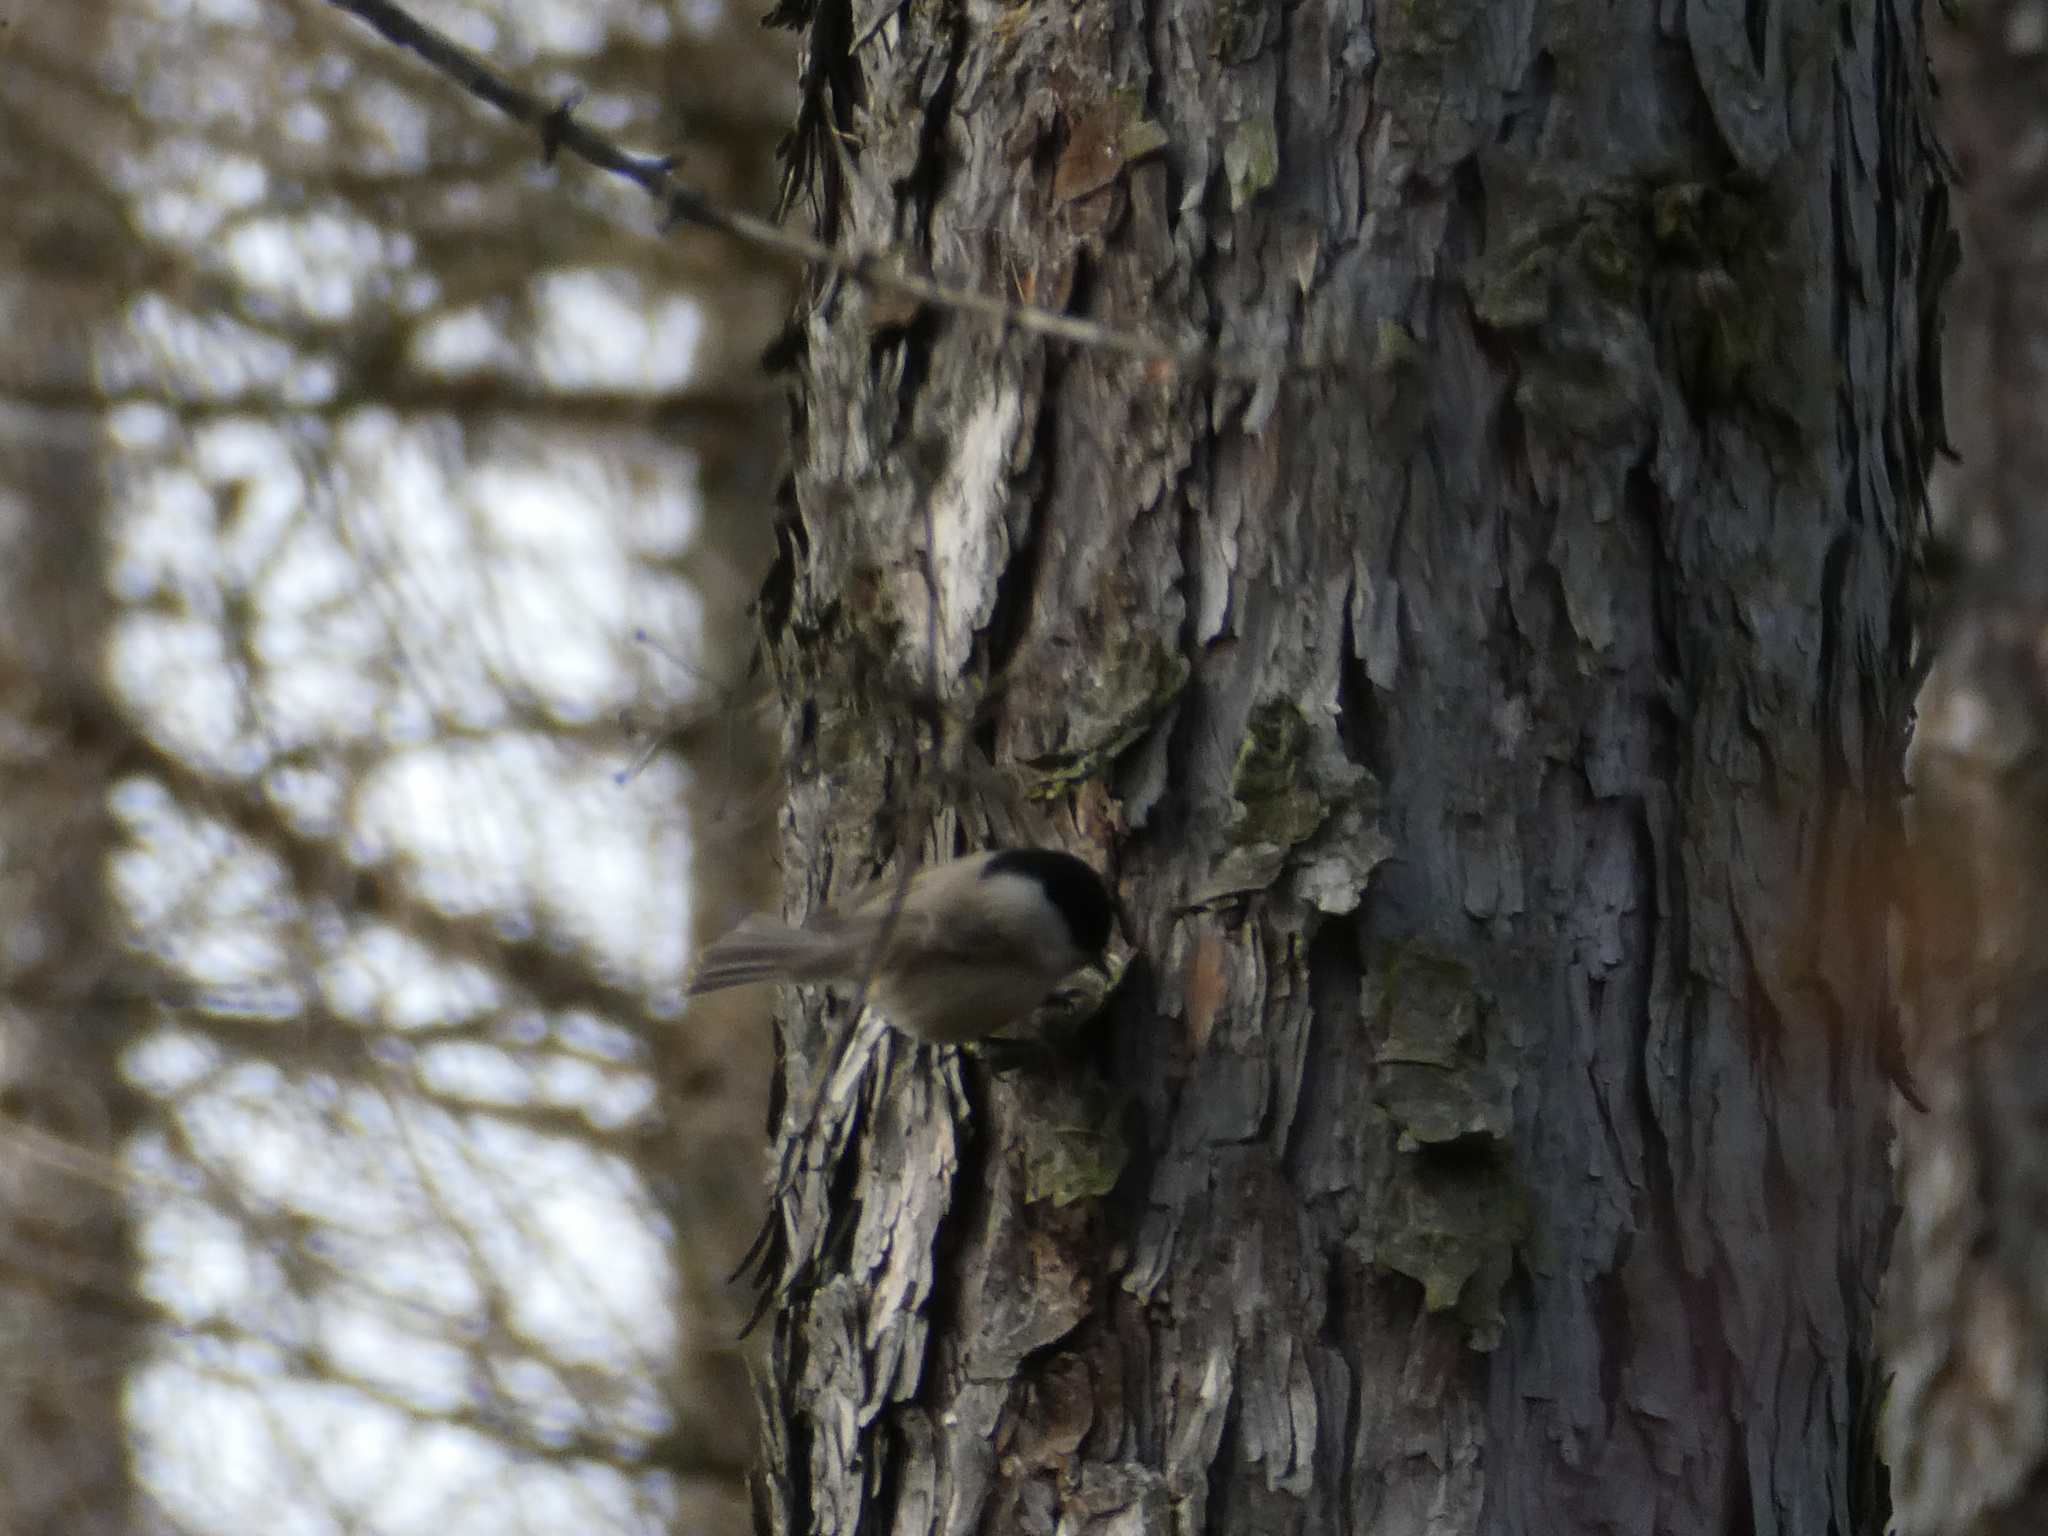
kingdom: Animalia
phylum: Chordata
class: Aves
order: Passeriformes
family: Paridae
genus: Poecile
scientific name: Poecile palustris
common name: Marsh tit
